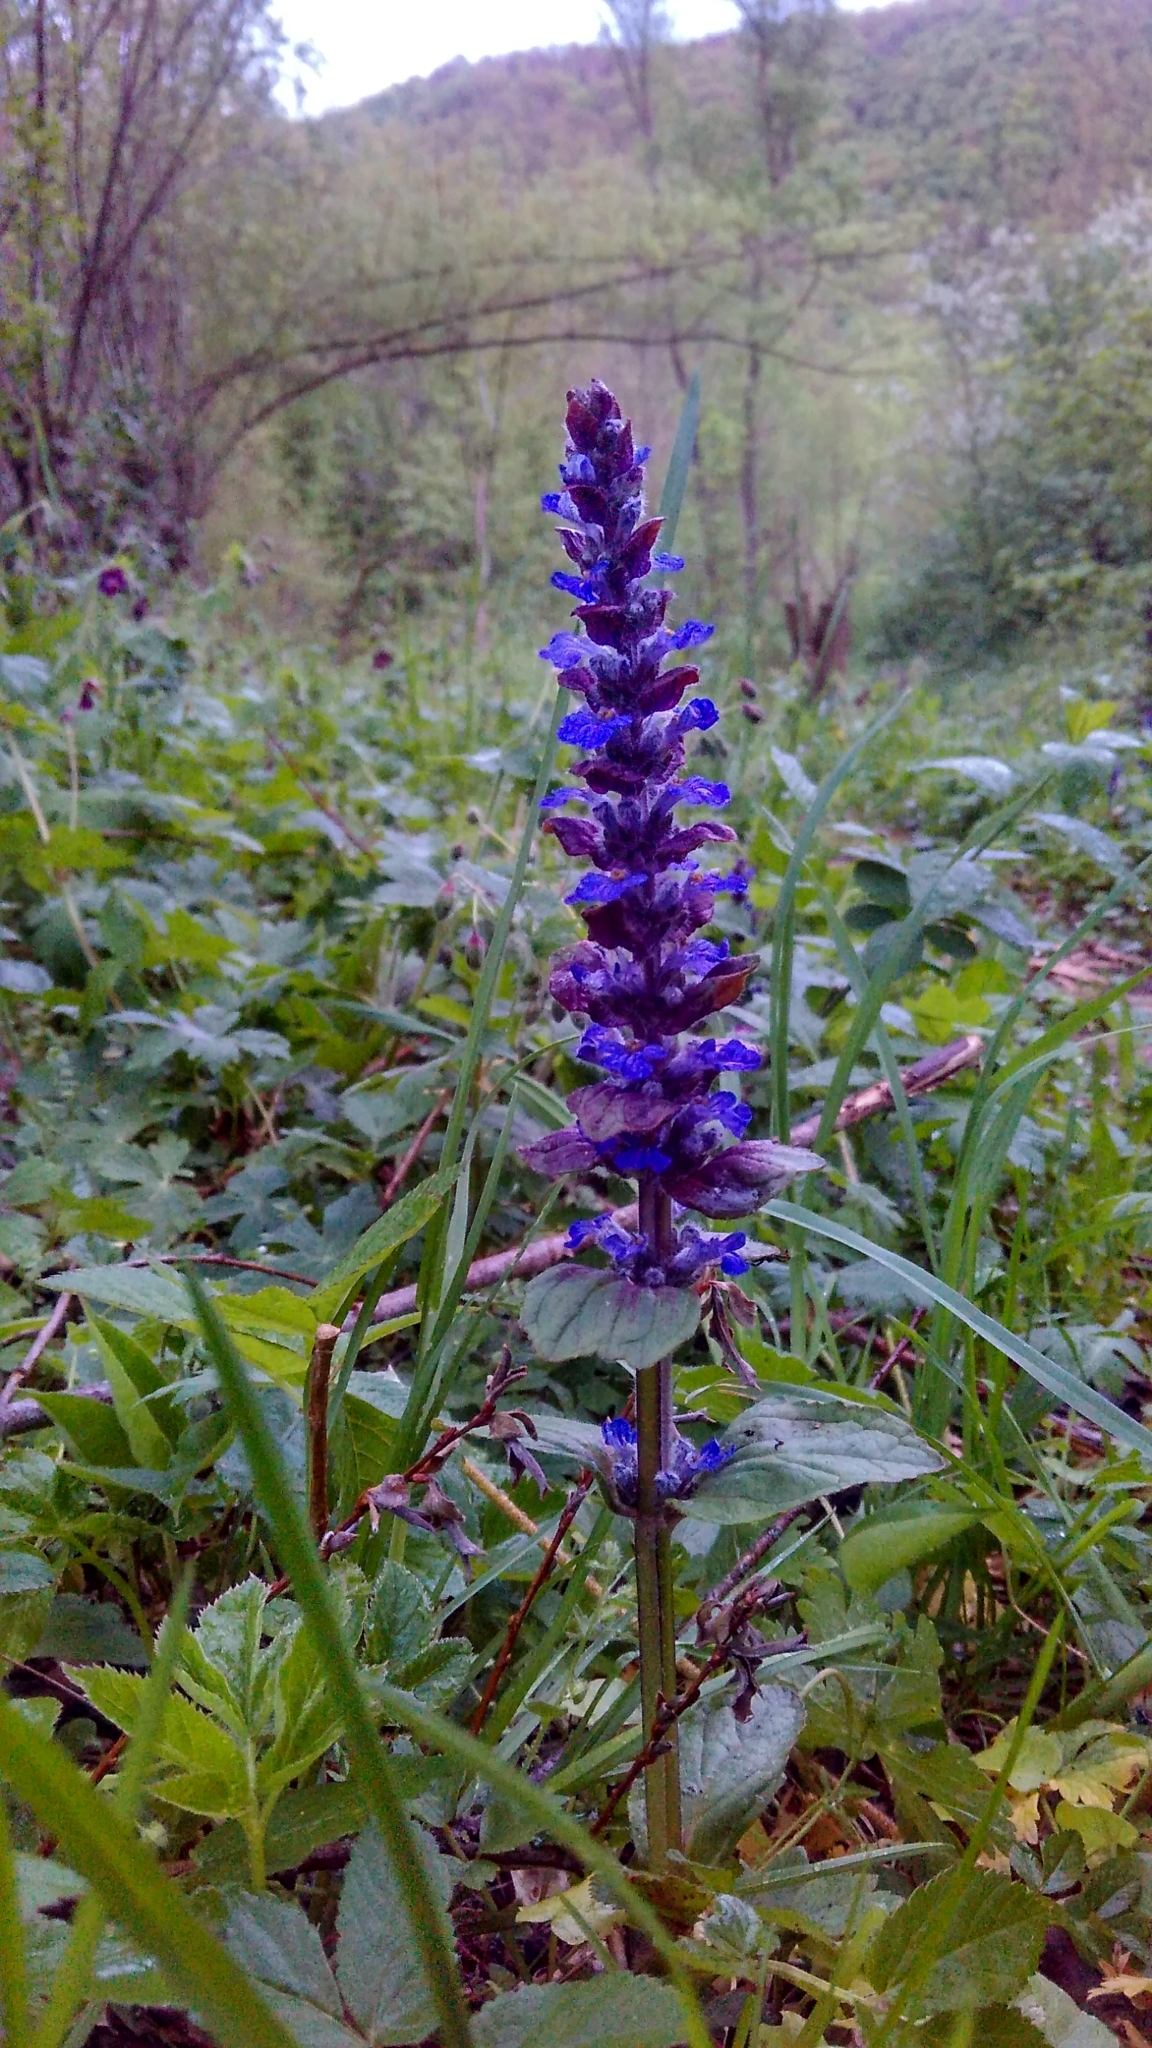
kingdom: Plantae
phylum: Tracheophyta
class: Magnoliopsida
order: Lamiales
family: Lamiaceae
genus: Ajuga
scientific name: Ajuga reptans
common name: Bugle
